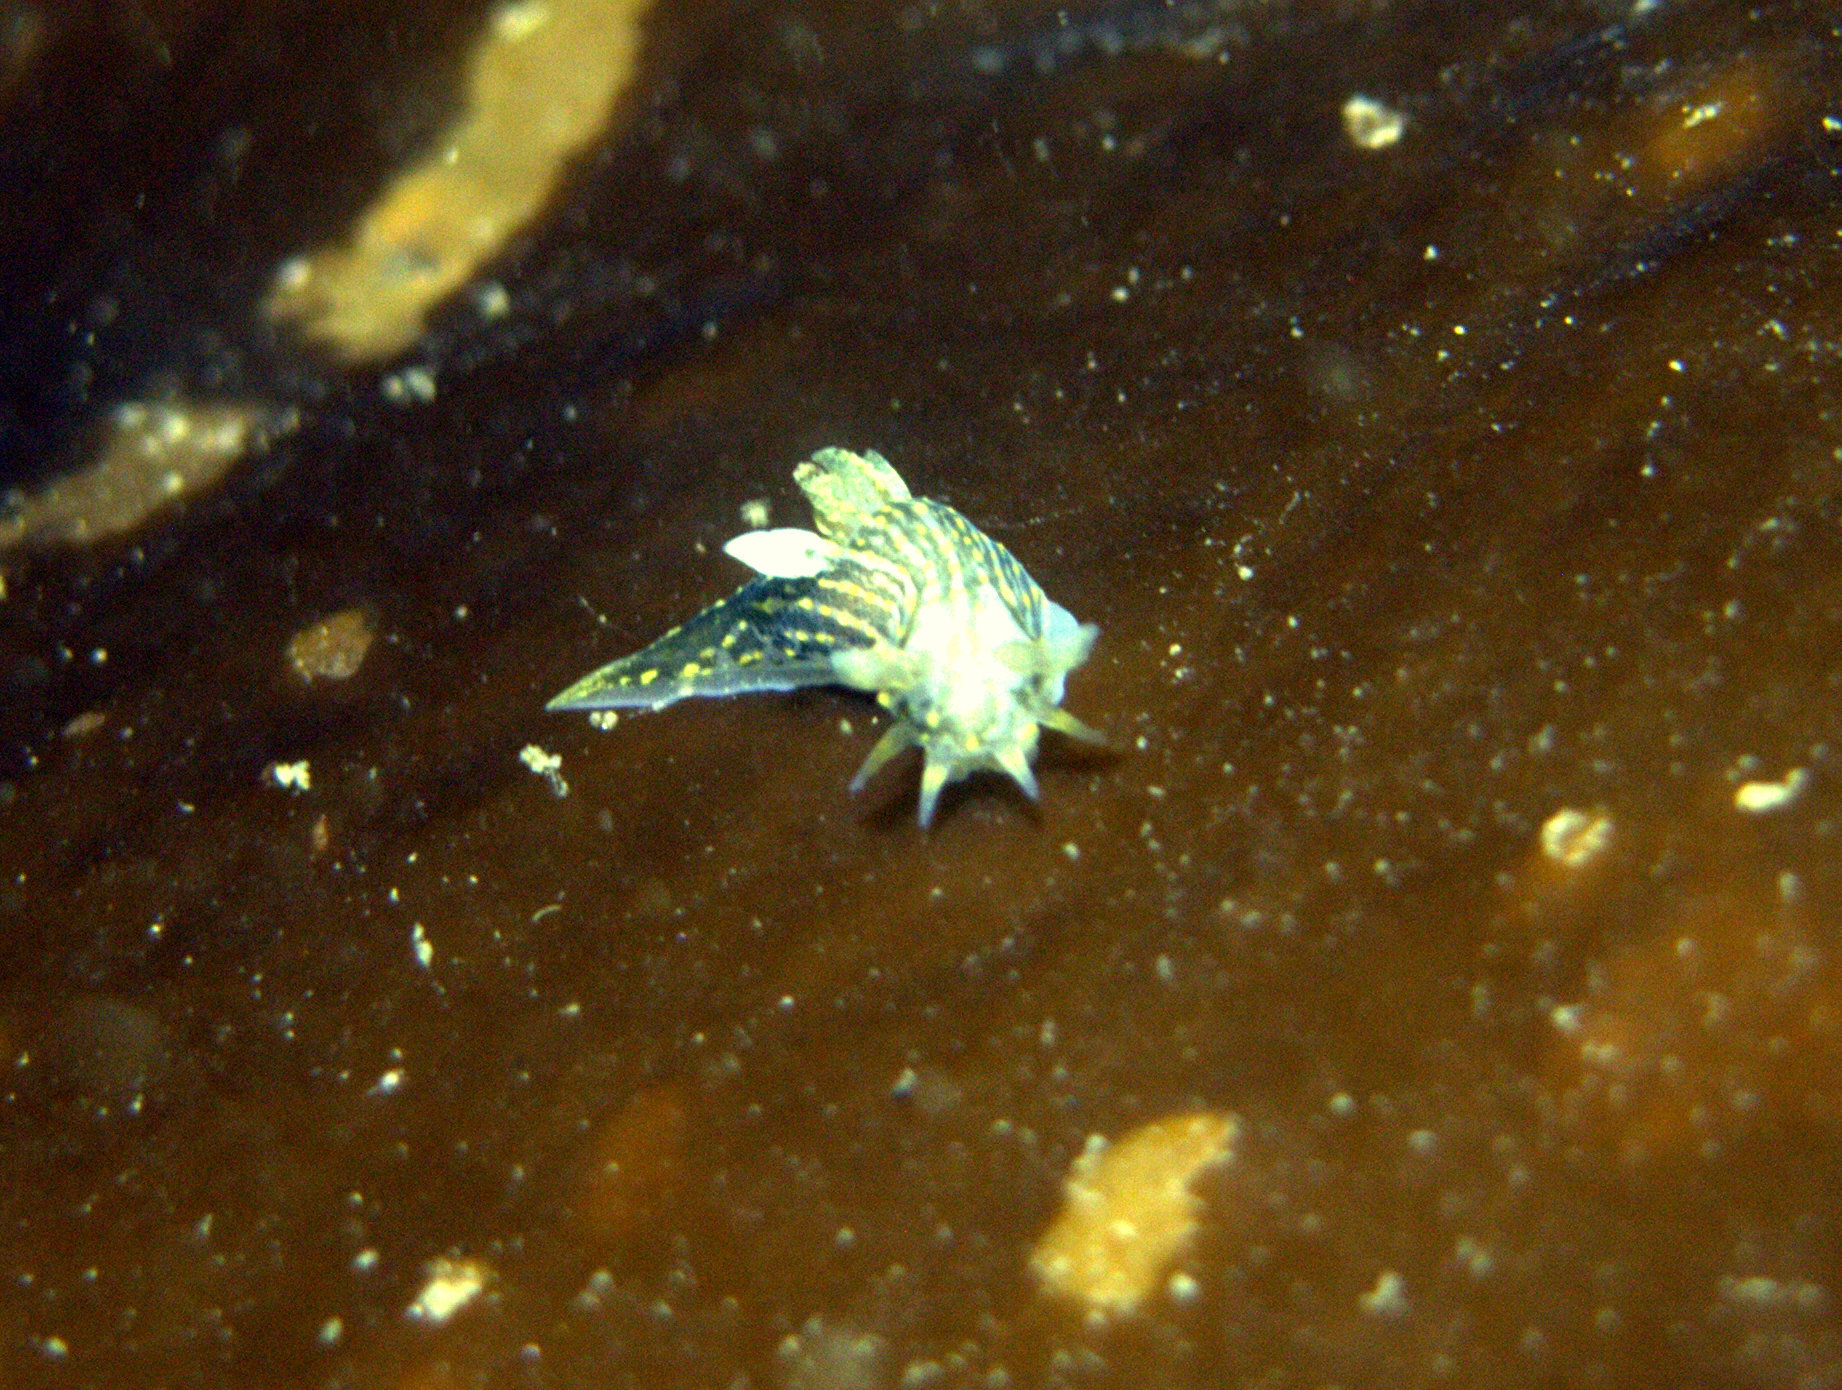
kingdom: Animalia
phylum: Mollusca
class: Gastropoda
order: Nudibranchia
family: Polyceridae
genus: Polycera
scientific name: Polycera quadrilineata
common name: Four-striped polycera
